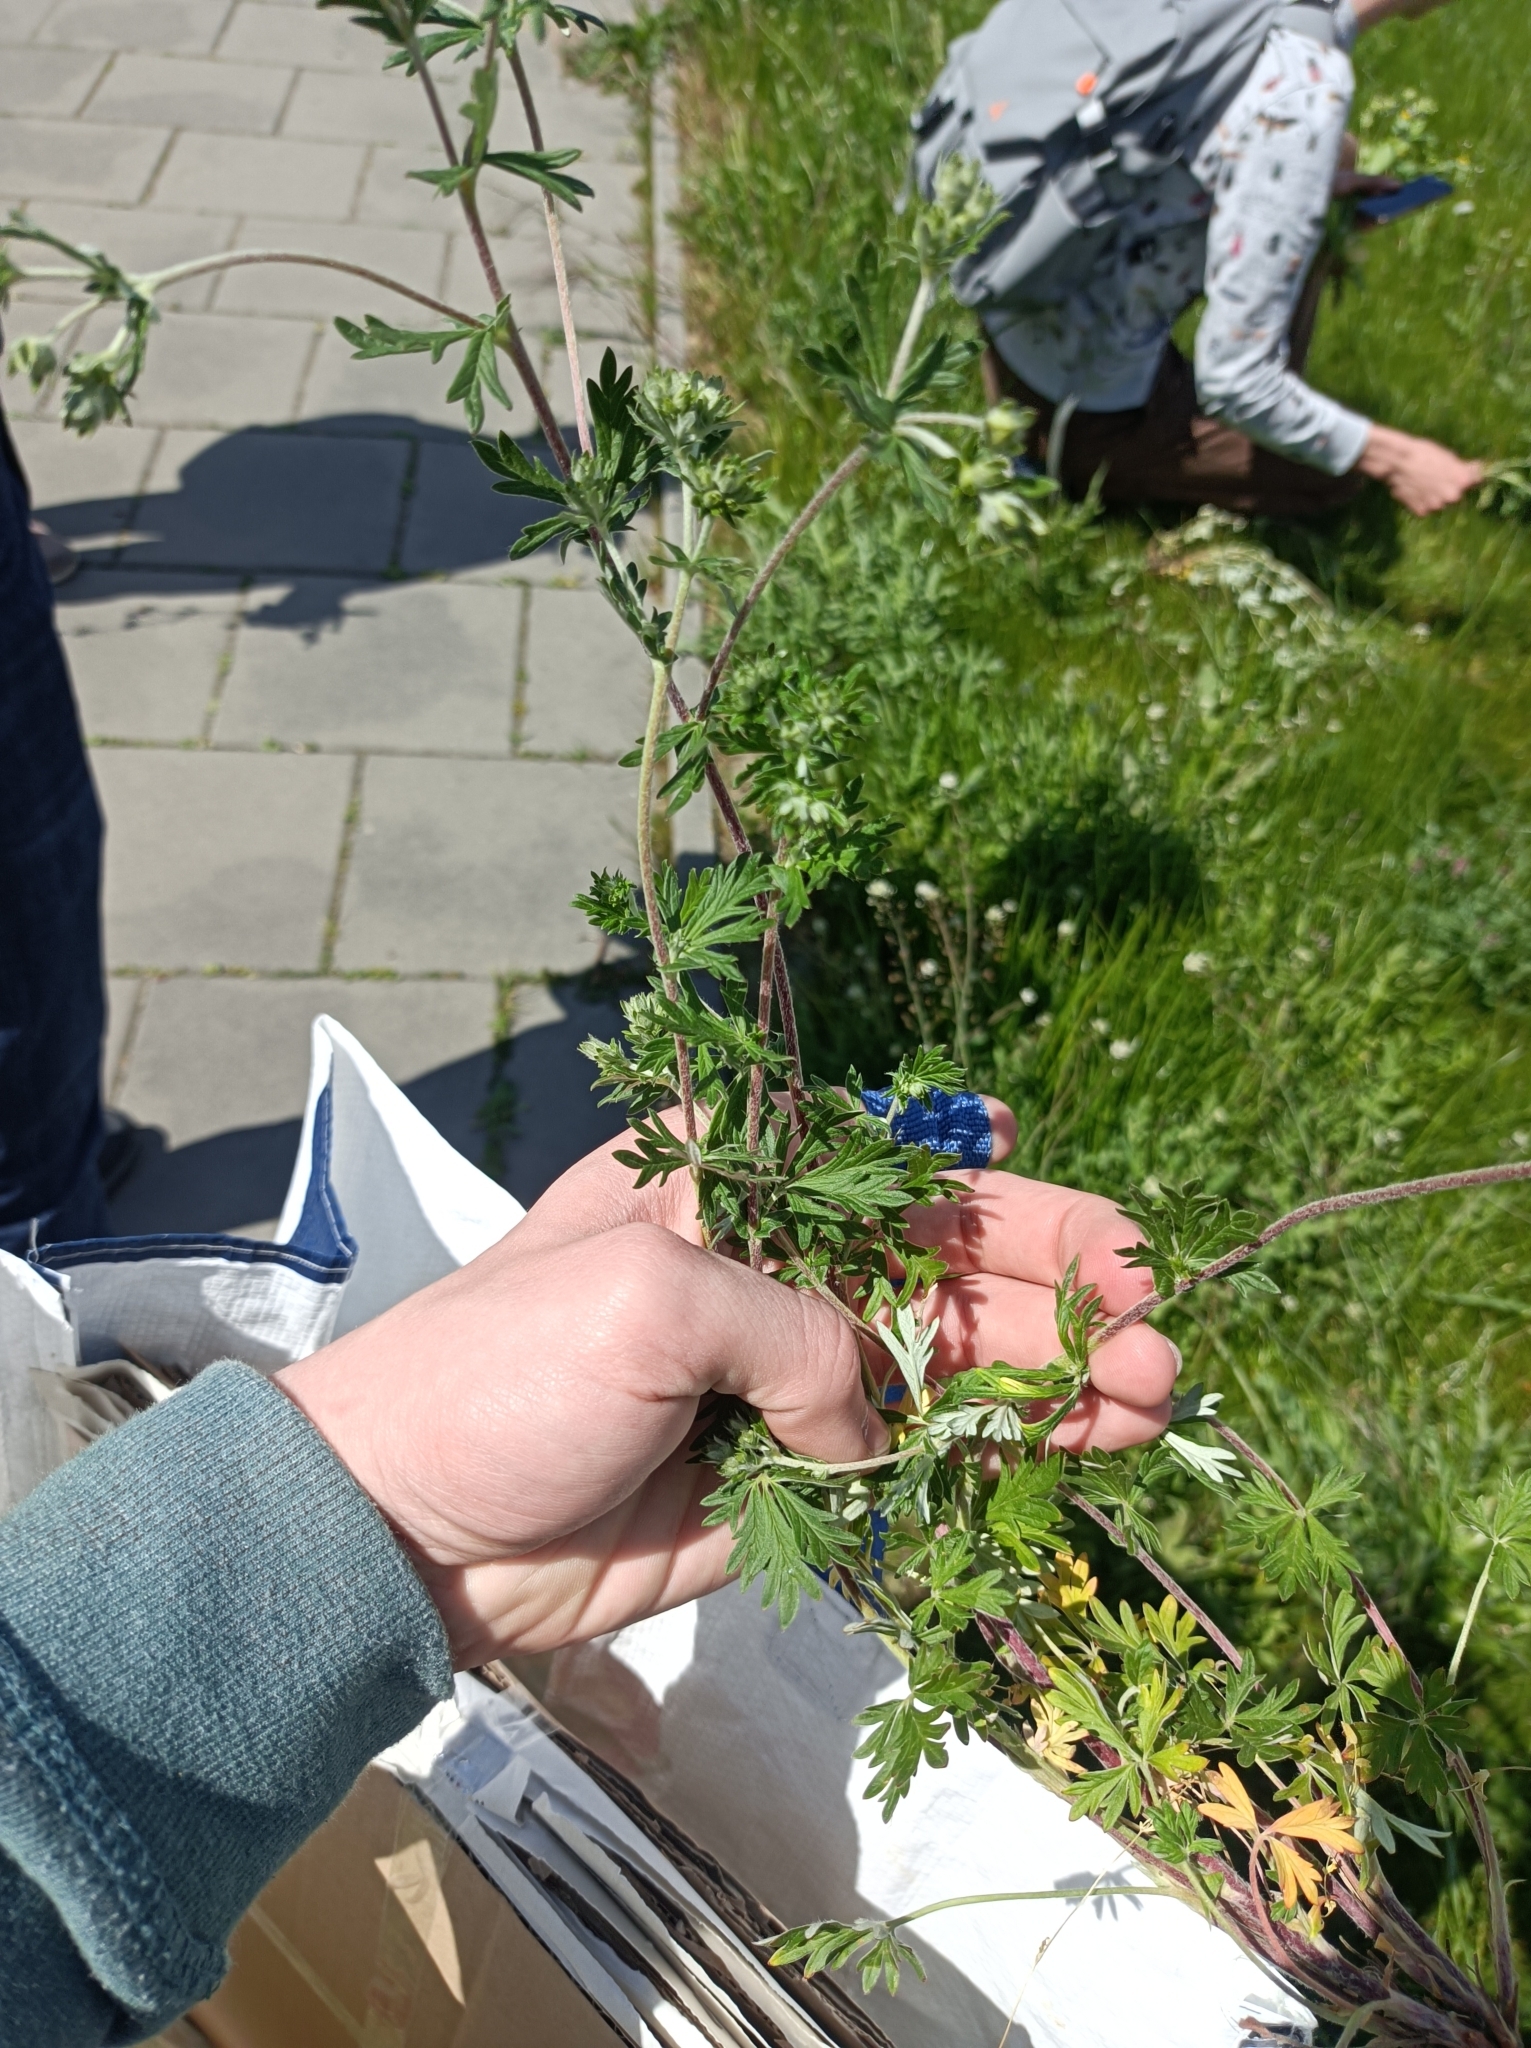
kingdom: Plantae
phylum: Tracheophyta
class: Magnoliopsida
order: Rosales
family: Rosaceae
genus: Potentilla
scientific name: Potentilla argentea
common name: Hoary cinquefoil
